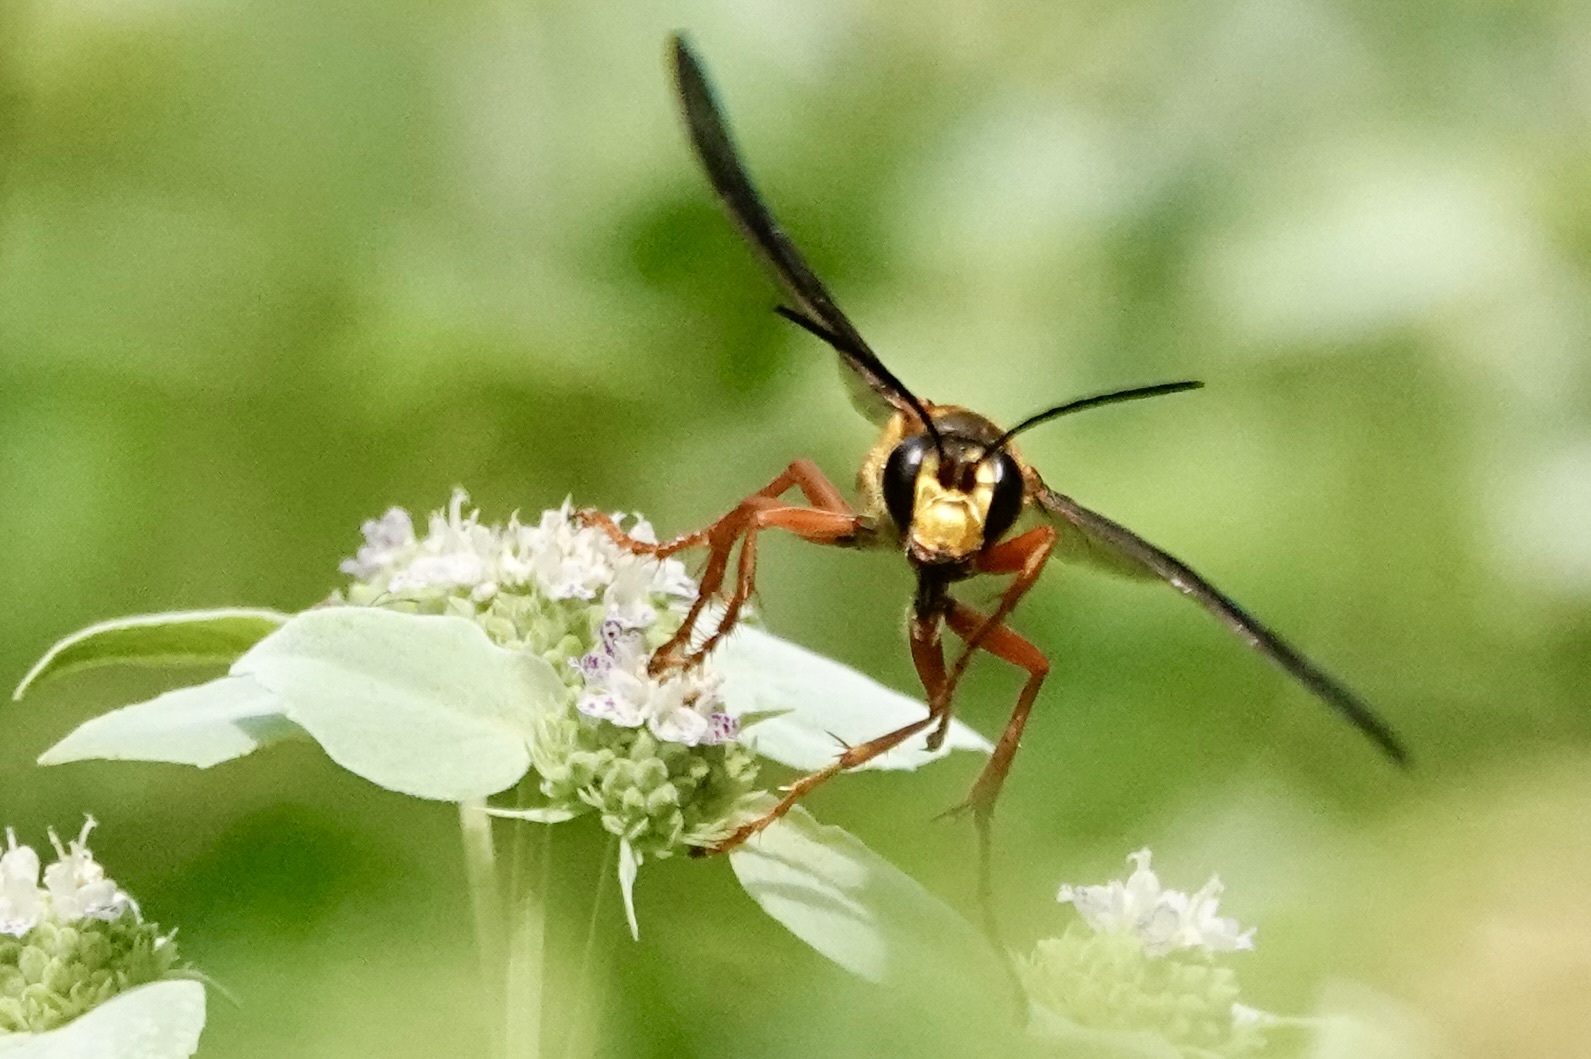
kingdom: Animalia
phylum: Arthropoda
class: Insecta
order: Hymenoptera
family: Sphecidae
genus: Sphex
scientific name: Sphex ichneumoneus
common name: Great golden digger wasp
